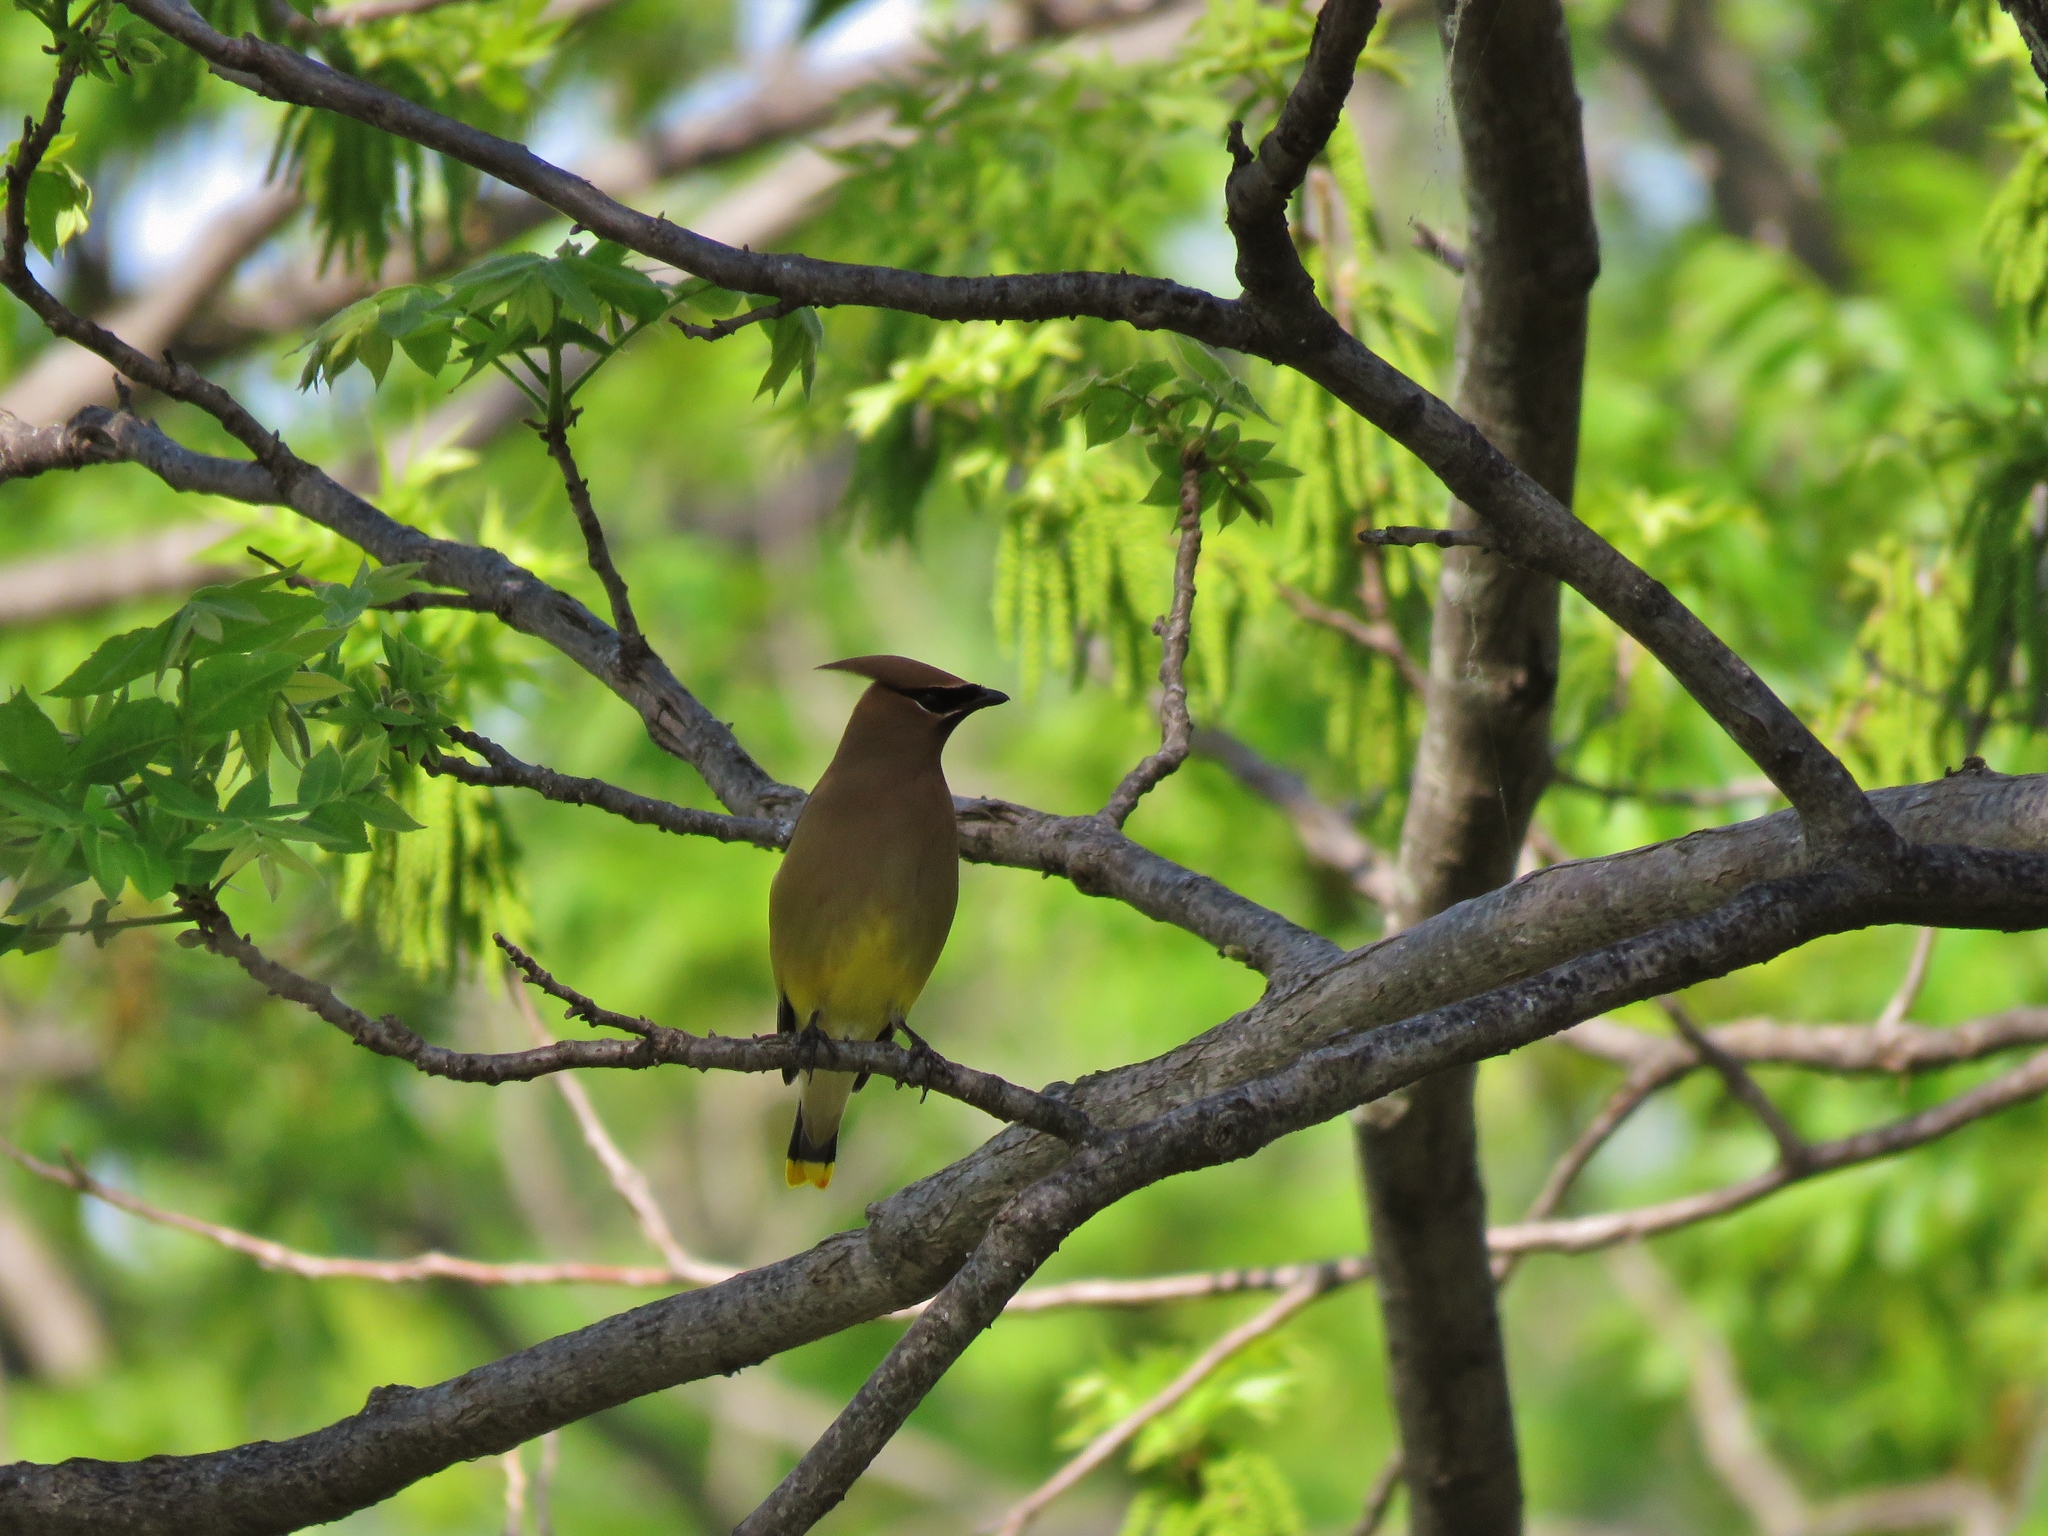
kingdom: Animalia
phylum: Chordata
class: Aves
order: Passeriformes
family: Bombycillidae
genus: Bombycilla
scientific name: Bombycilla cedrorum
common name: Cedar waxwing
